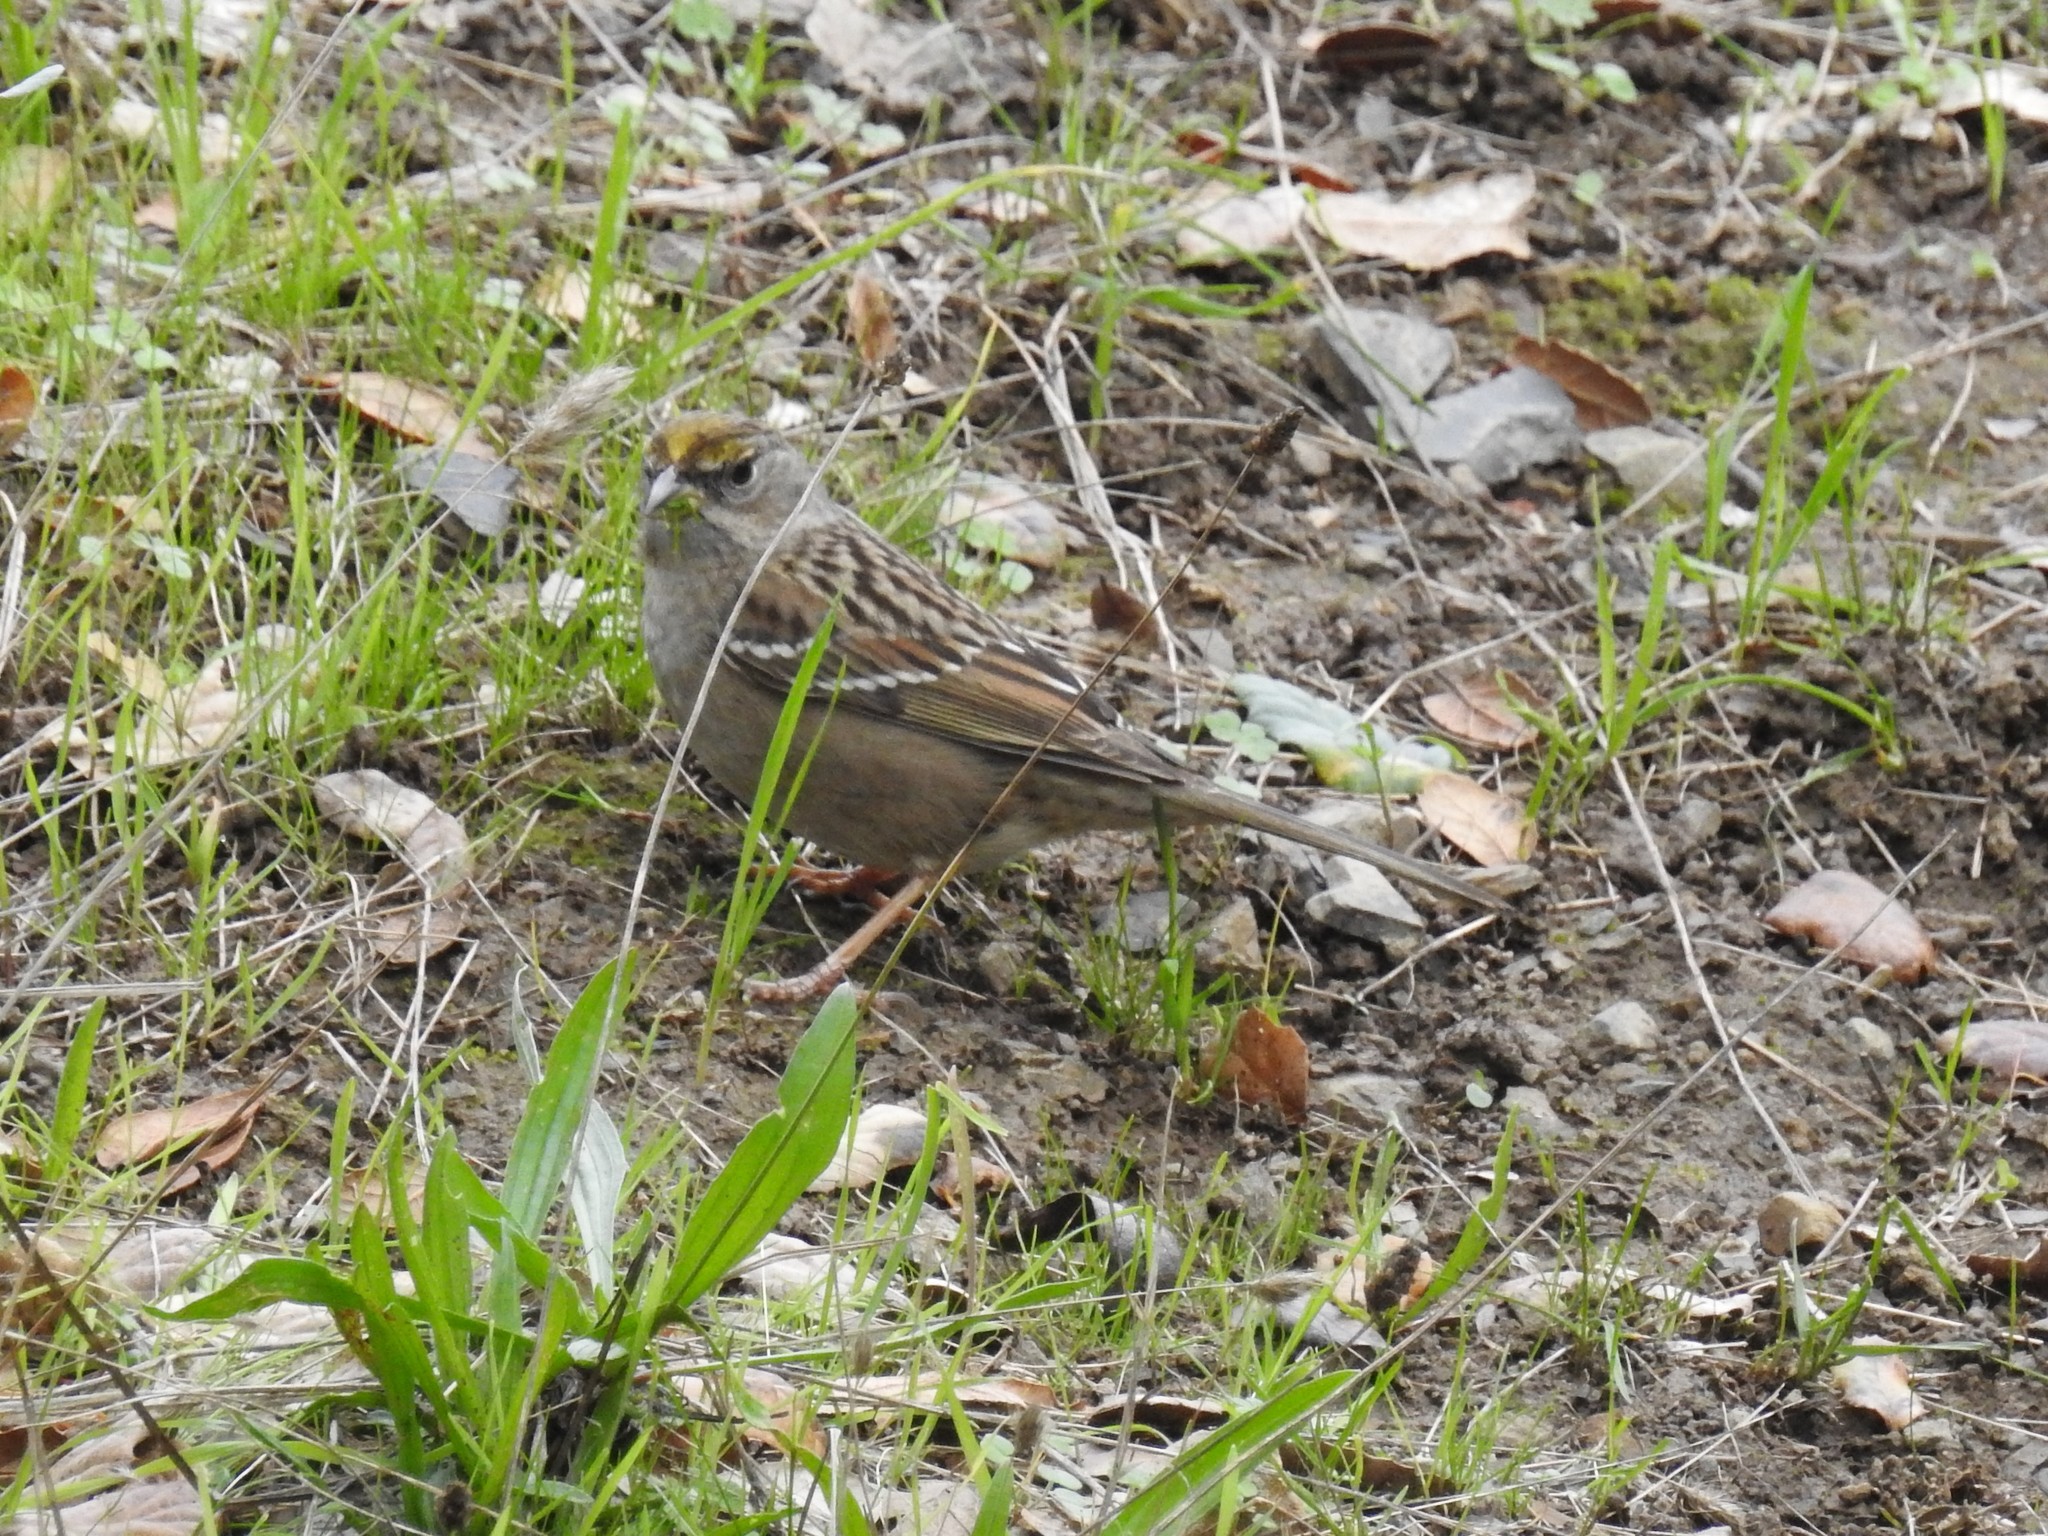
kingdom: Animalia
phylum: Chordata
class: Aves
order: Passeriformes
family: Passerellidae
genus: Zonotrichia
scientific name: Zonotrichia atricapilla
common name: Golden-crowned sparrow
